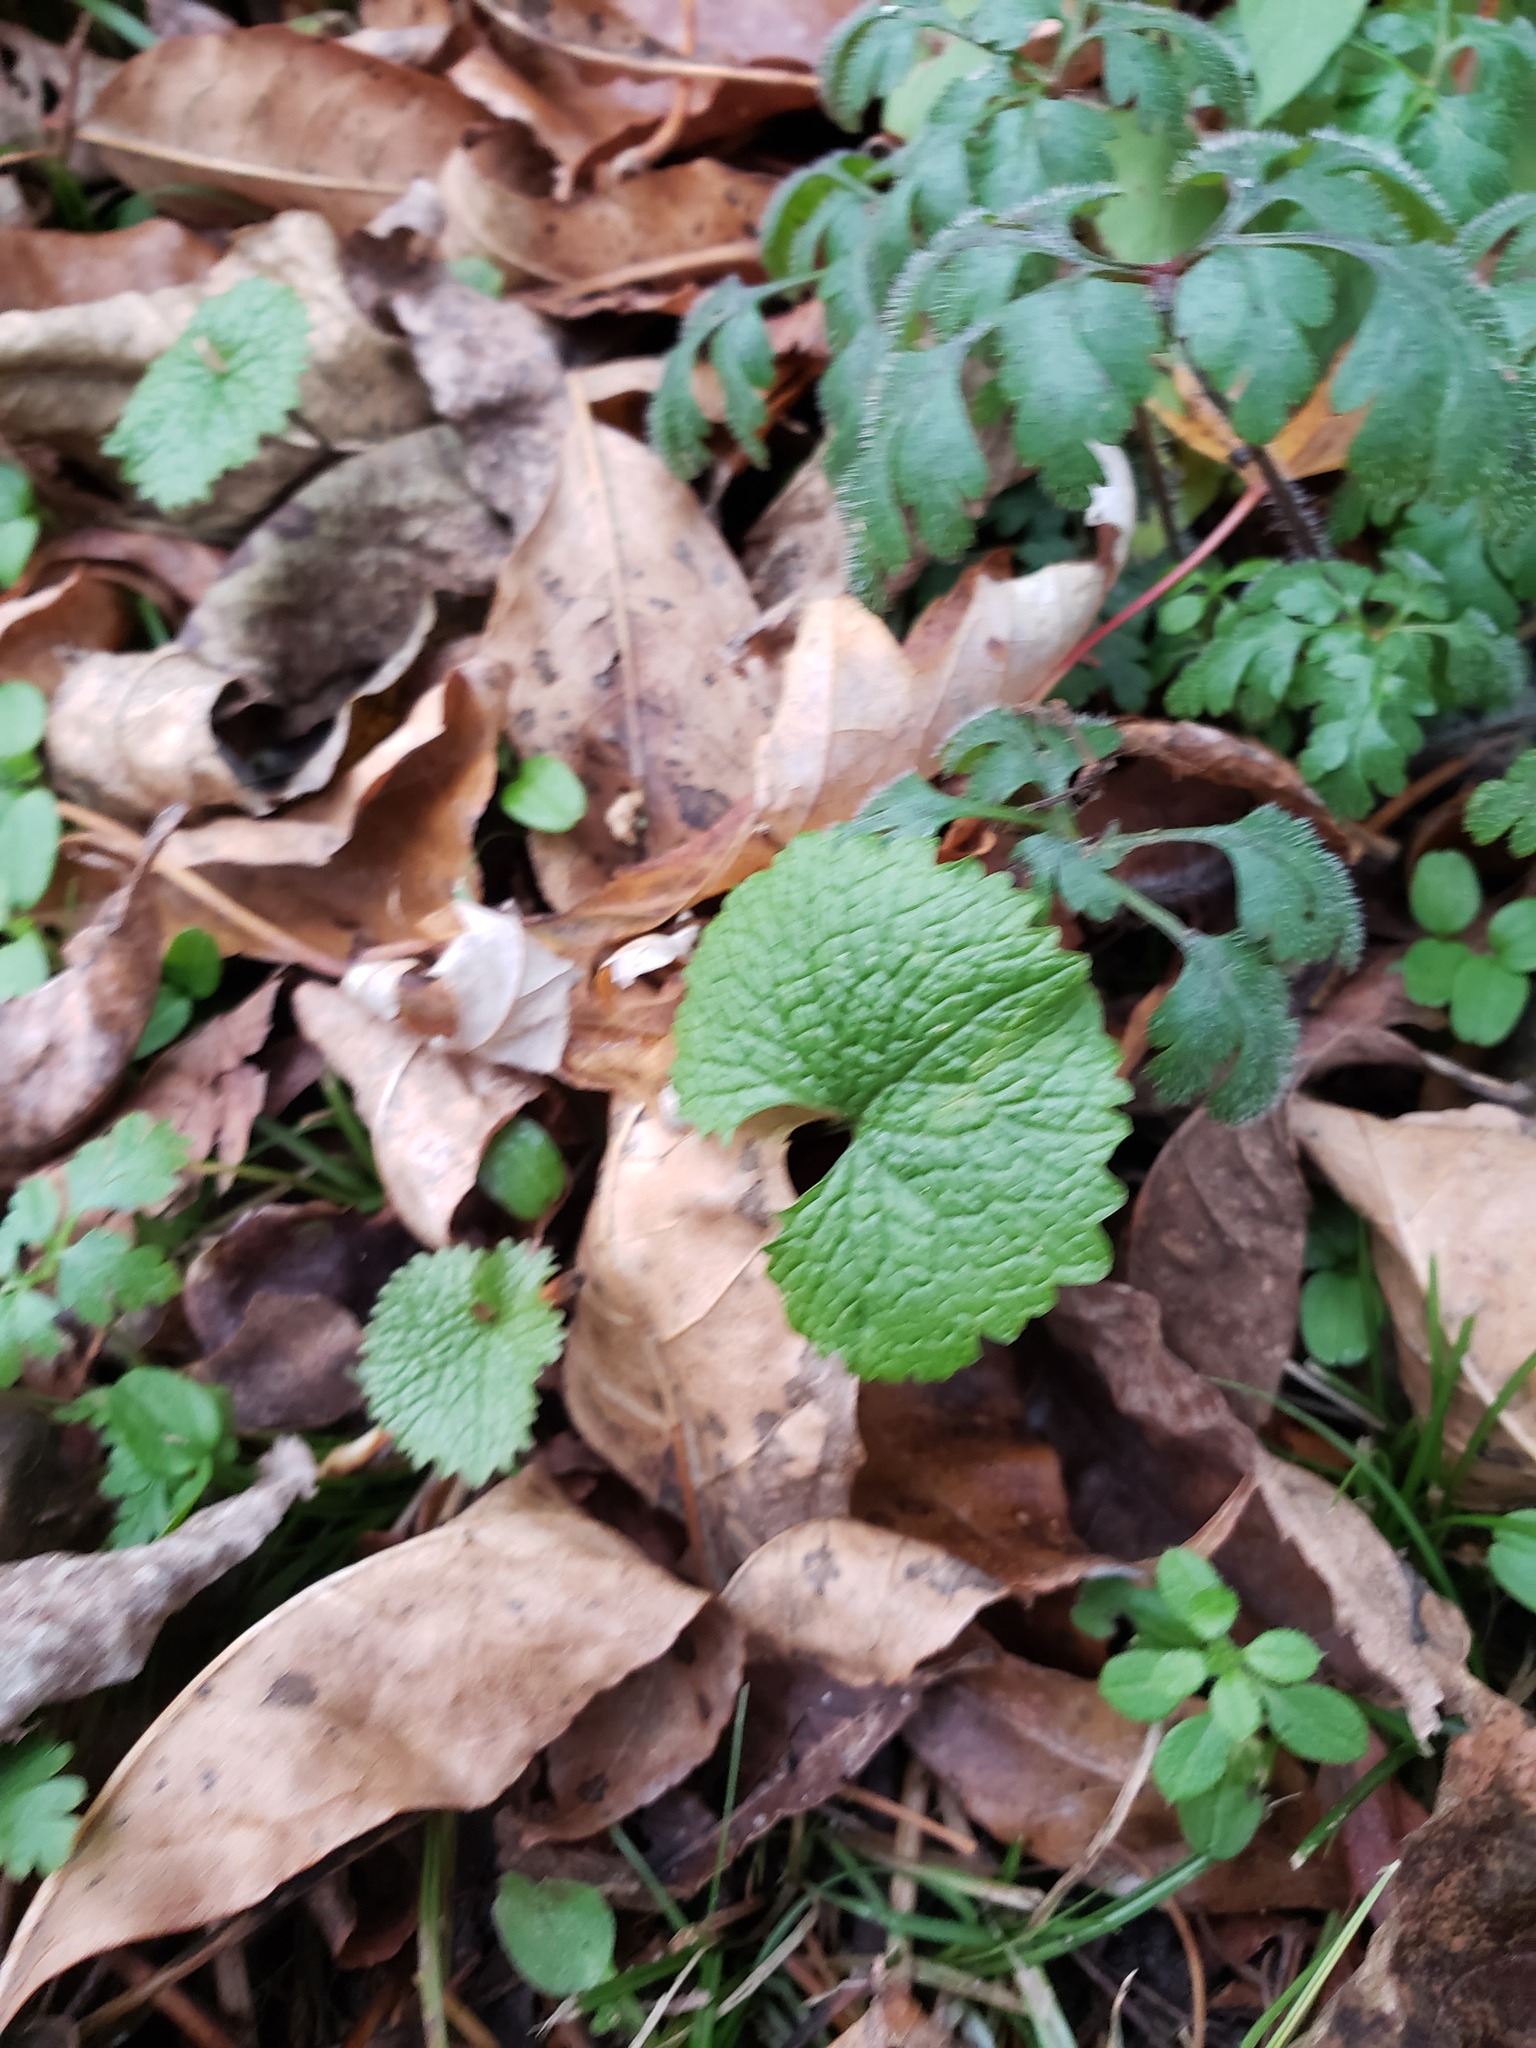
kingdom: Plantae
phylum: Tracheophyta
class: Magnoliopsida
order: Brassicales
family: Brassicaceae
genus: Alliaria
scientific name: Alliaria petiolata
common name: Garlic mustard
